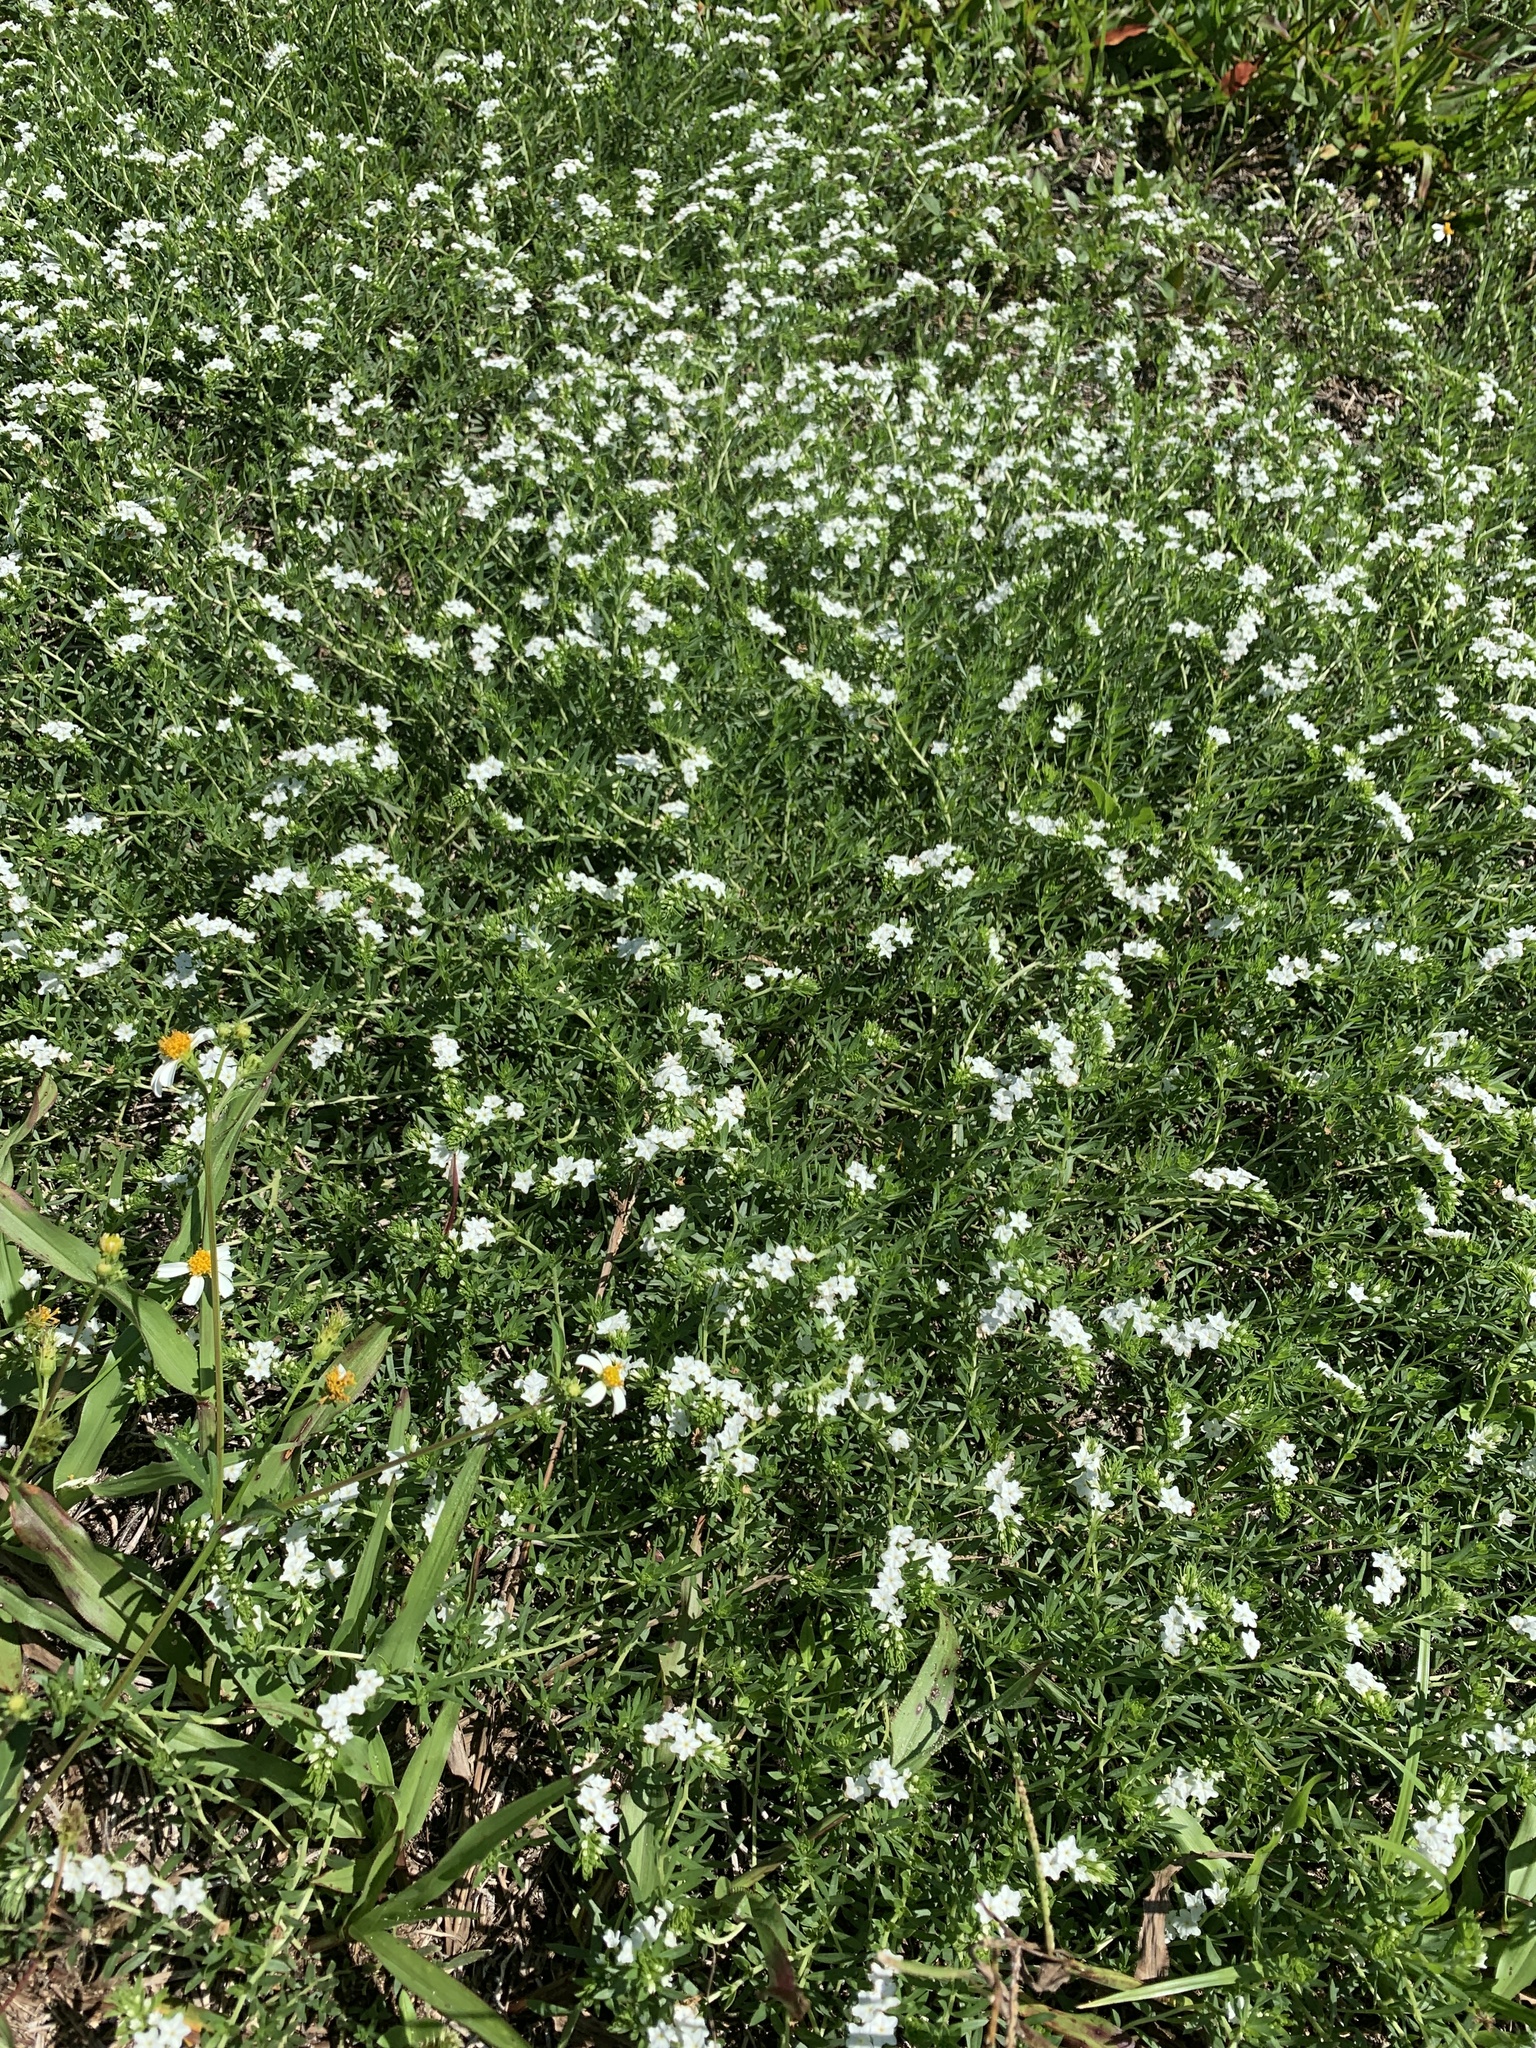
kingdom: Plantae
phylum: Tracheophyta
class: Magnoliopsida
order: Boraginales
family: Heliotropiaceae
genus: Euploca
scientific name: Euploca procumbens
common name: Fourspike heliotrope
